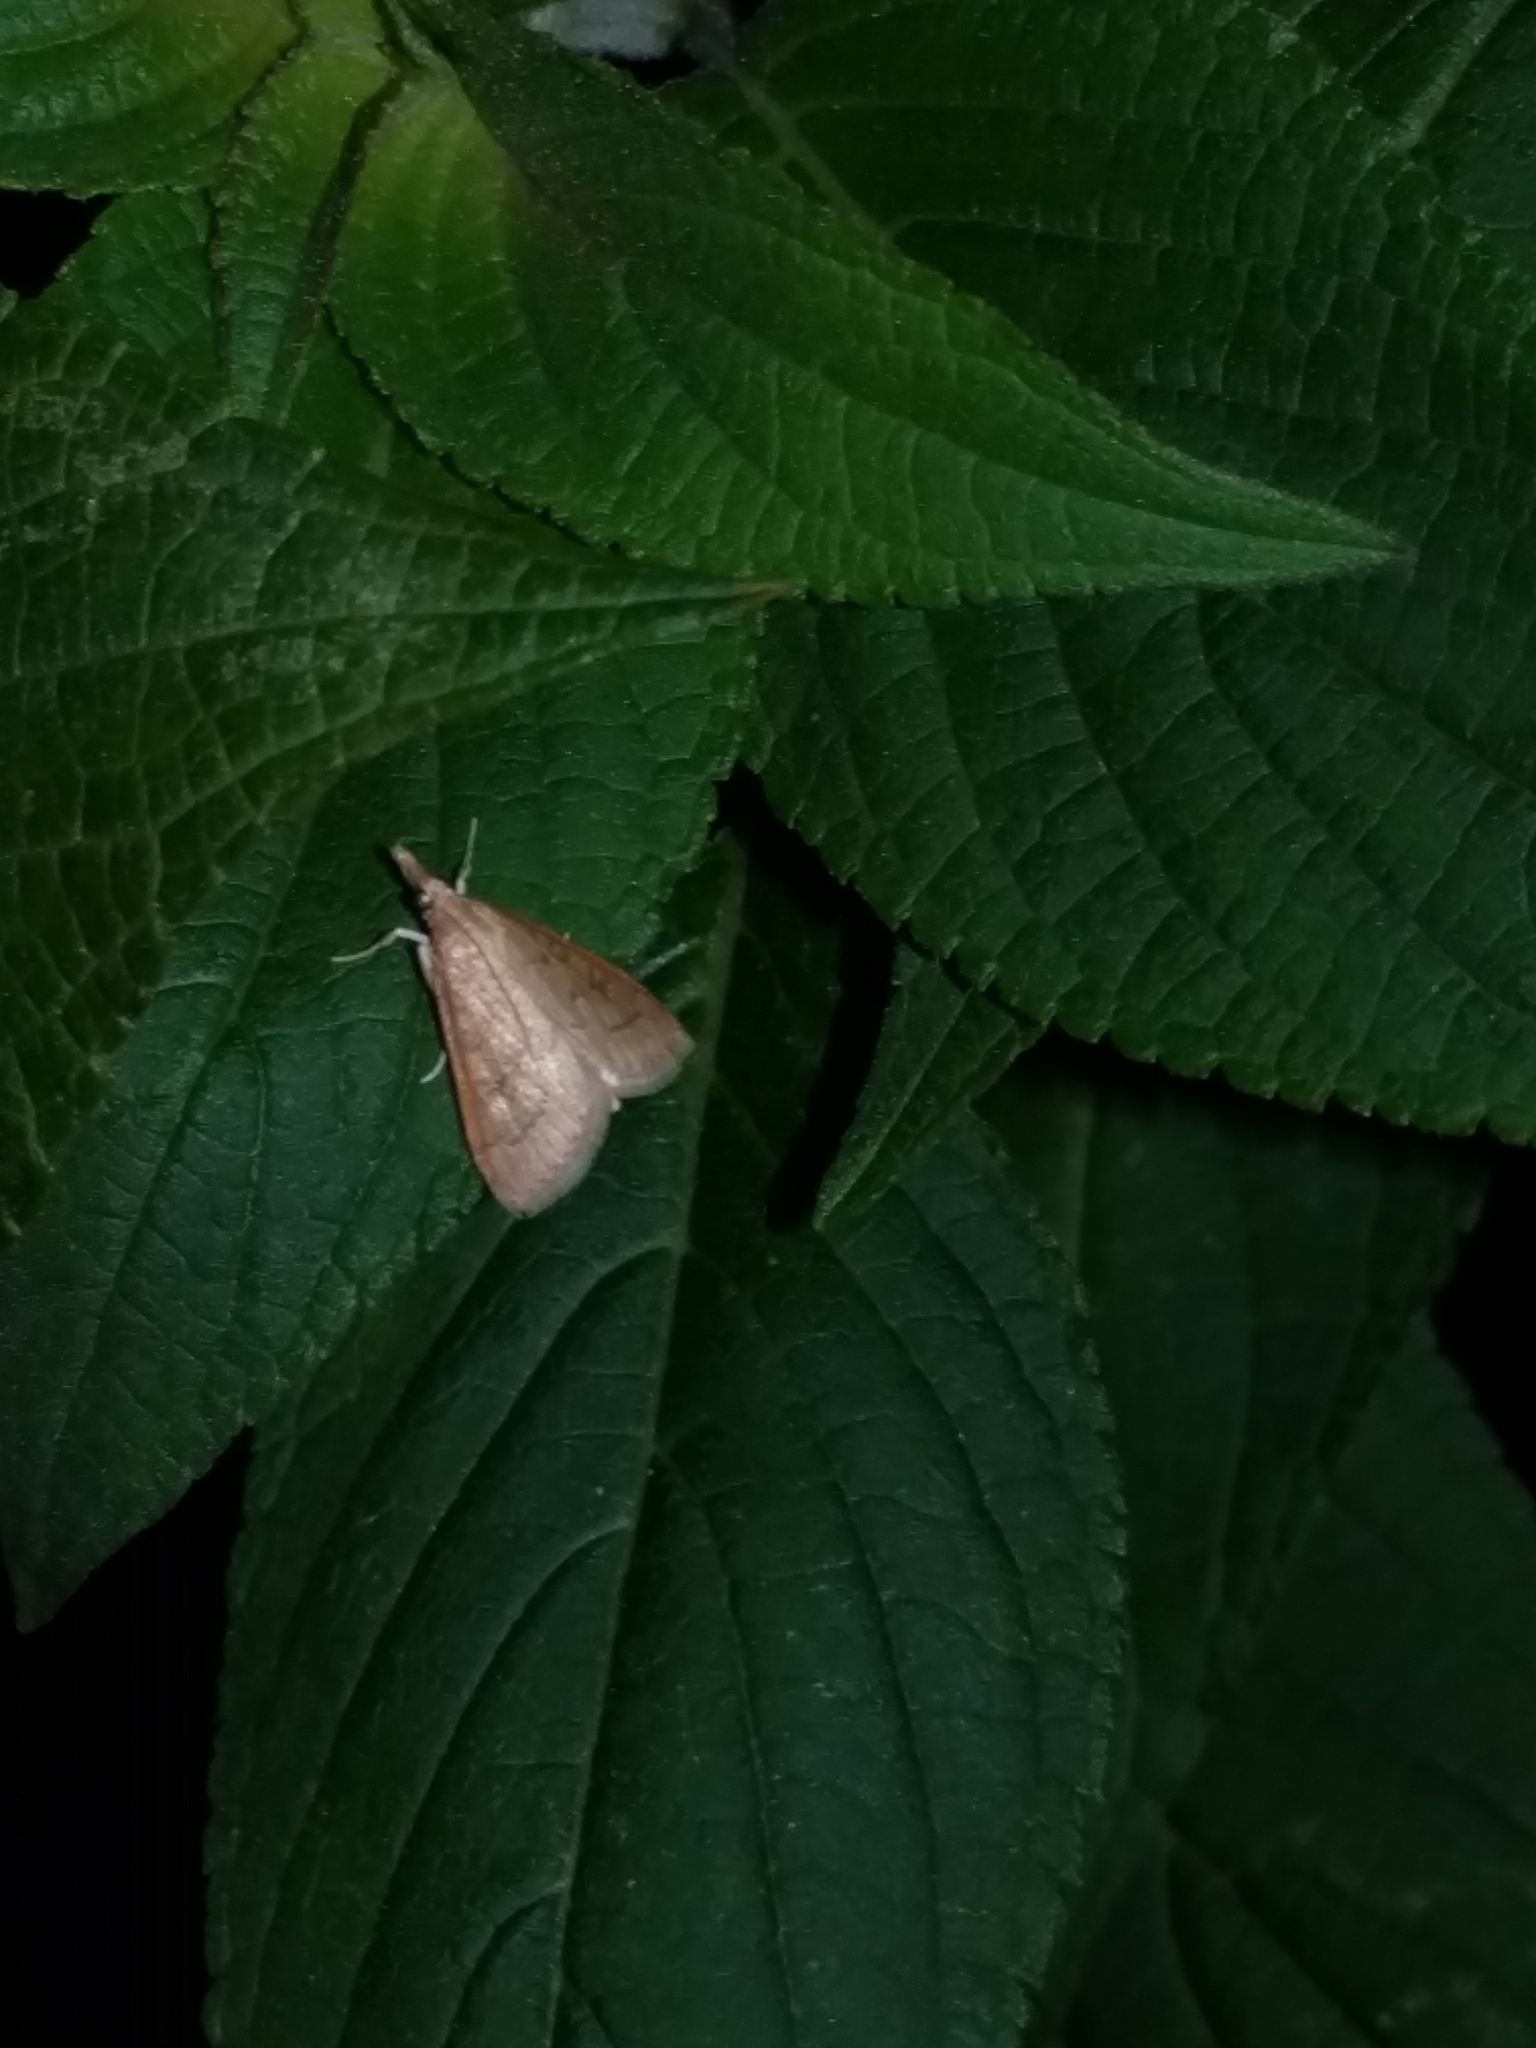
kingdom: Animalia
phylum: Arthropoda
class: Insecta
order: Lepidoptera
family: Crambidae
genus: Udea
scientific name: Udea rubigalis
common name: Celery leaftier moth
